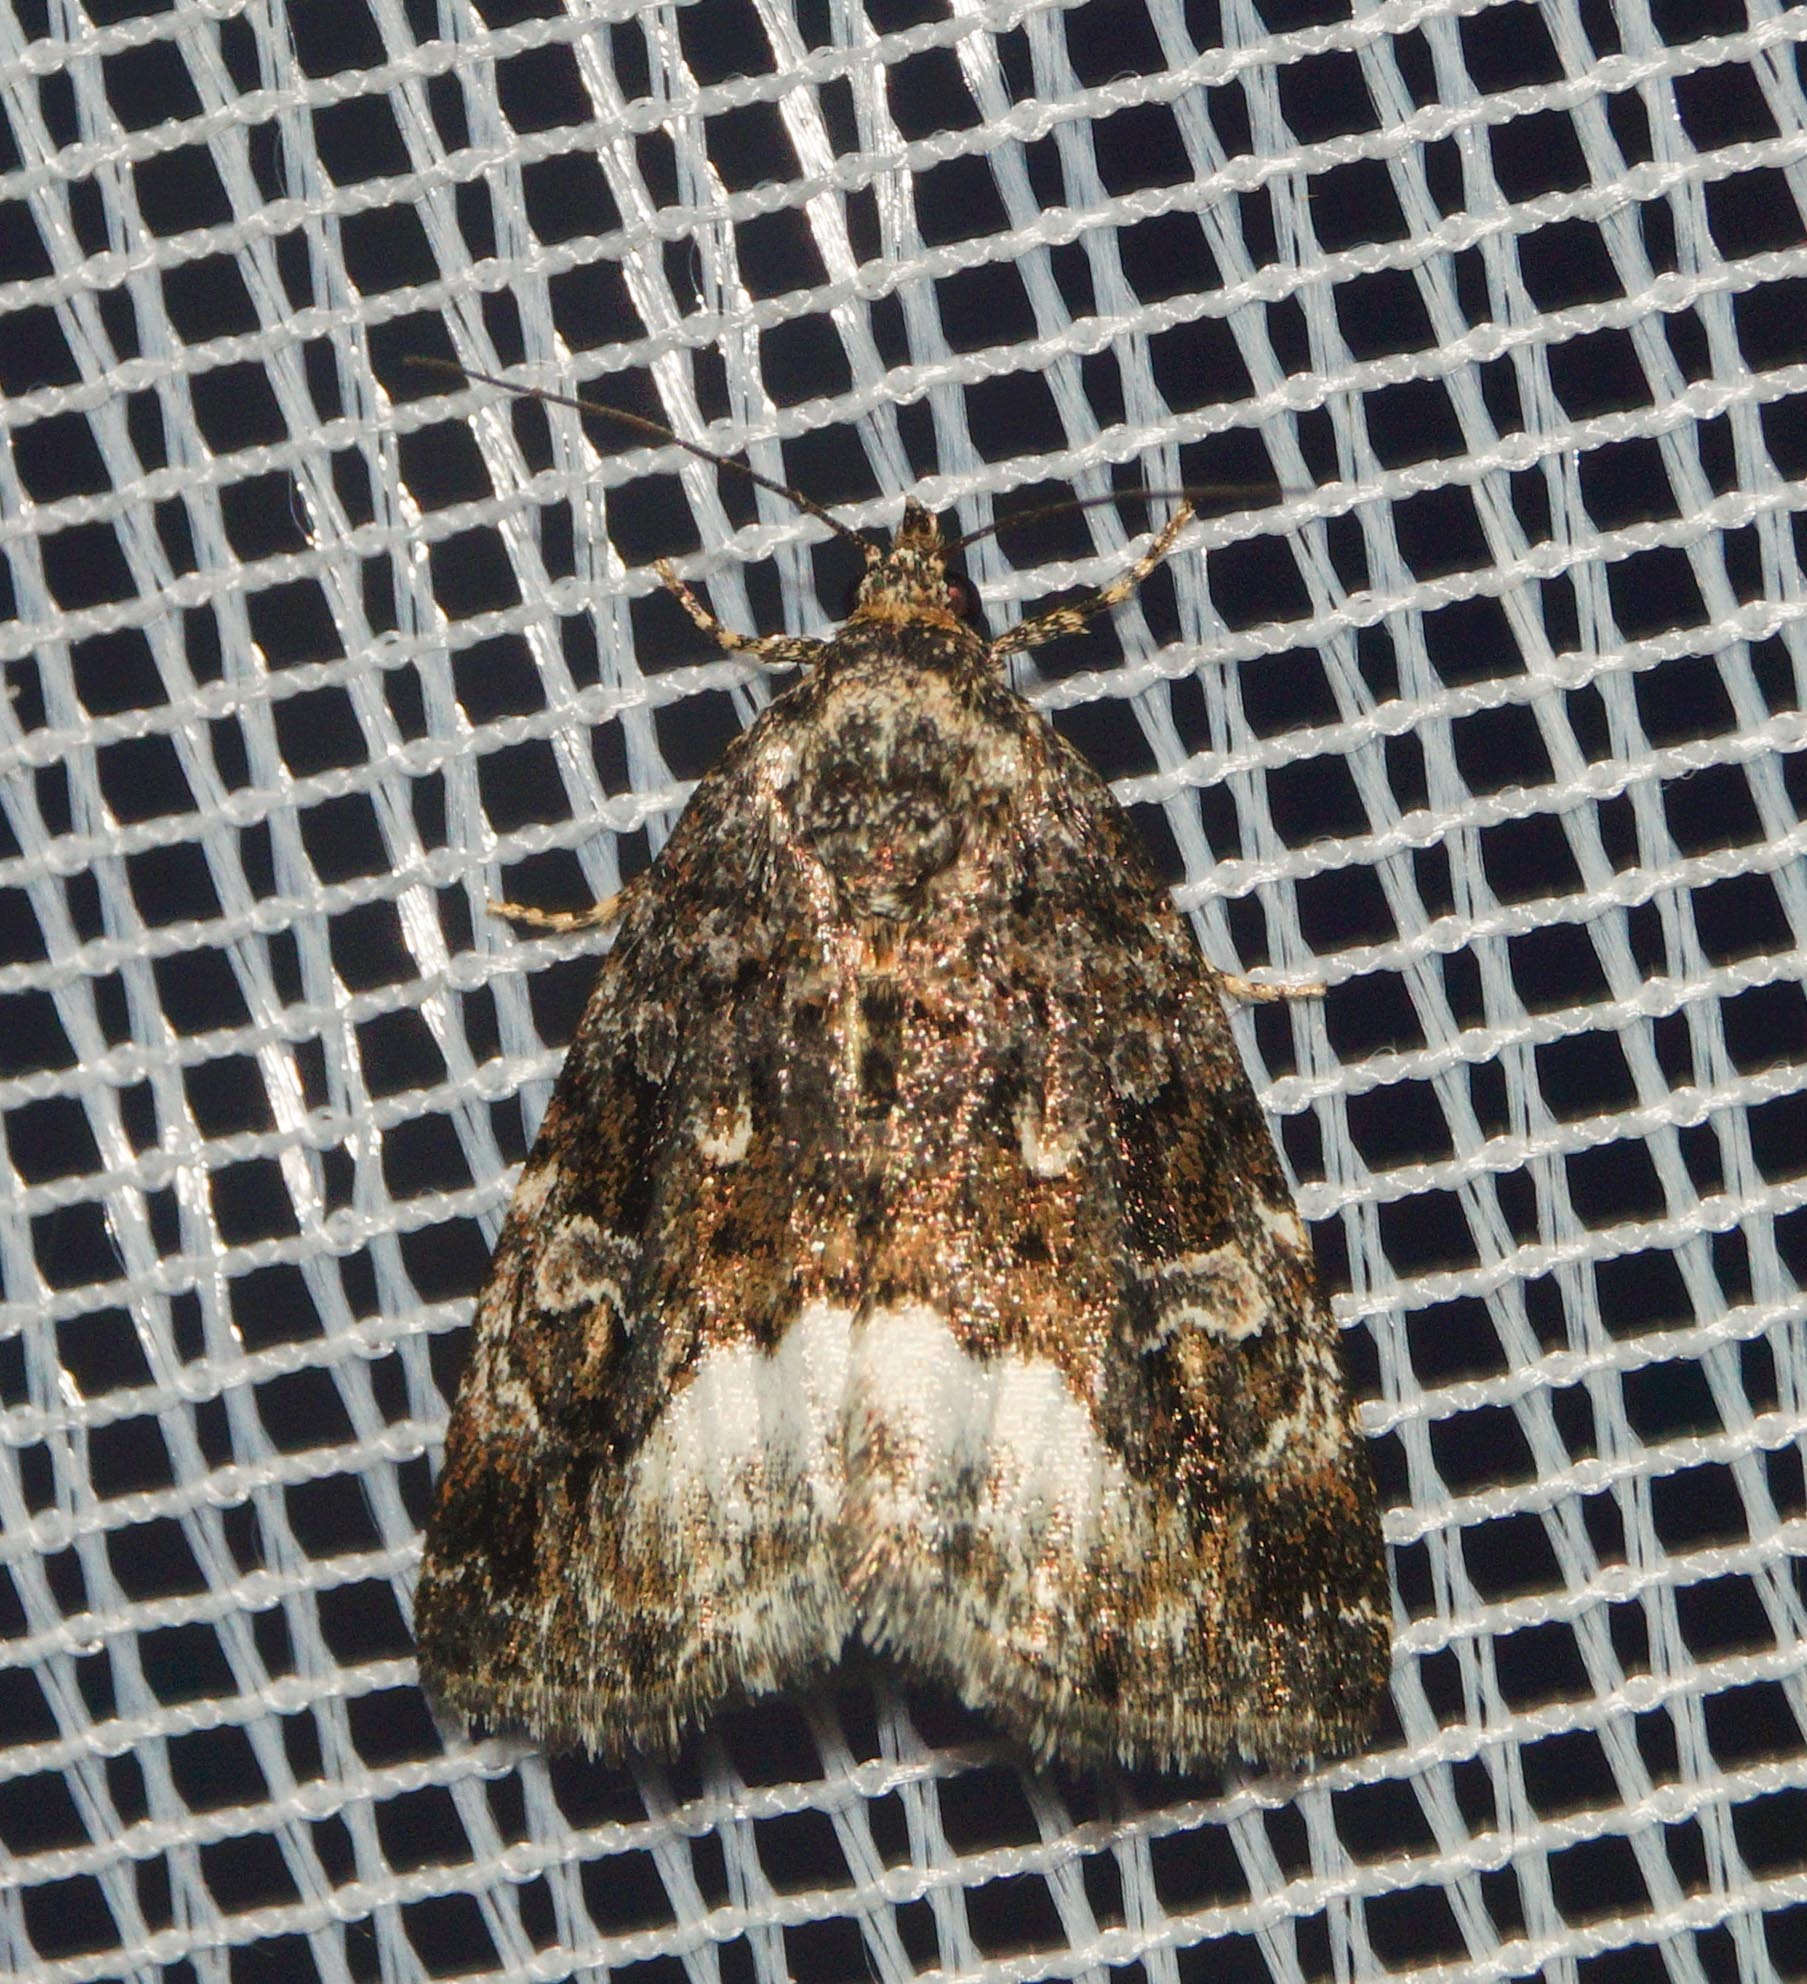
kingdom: Animalia
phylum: Arthropoda
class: Insecta
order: Lepidoptera
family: Noctuidae
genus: Deltote
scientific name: Deltote pygarga
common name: Marbled white spot
